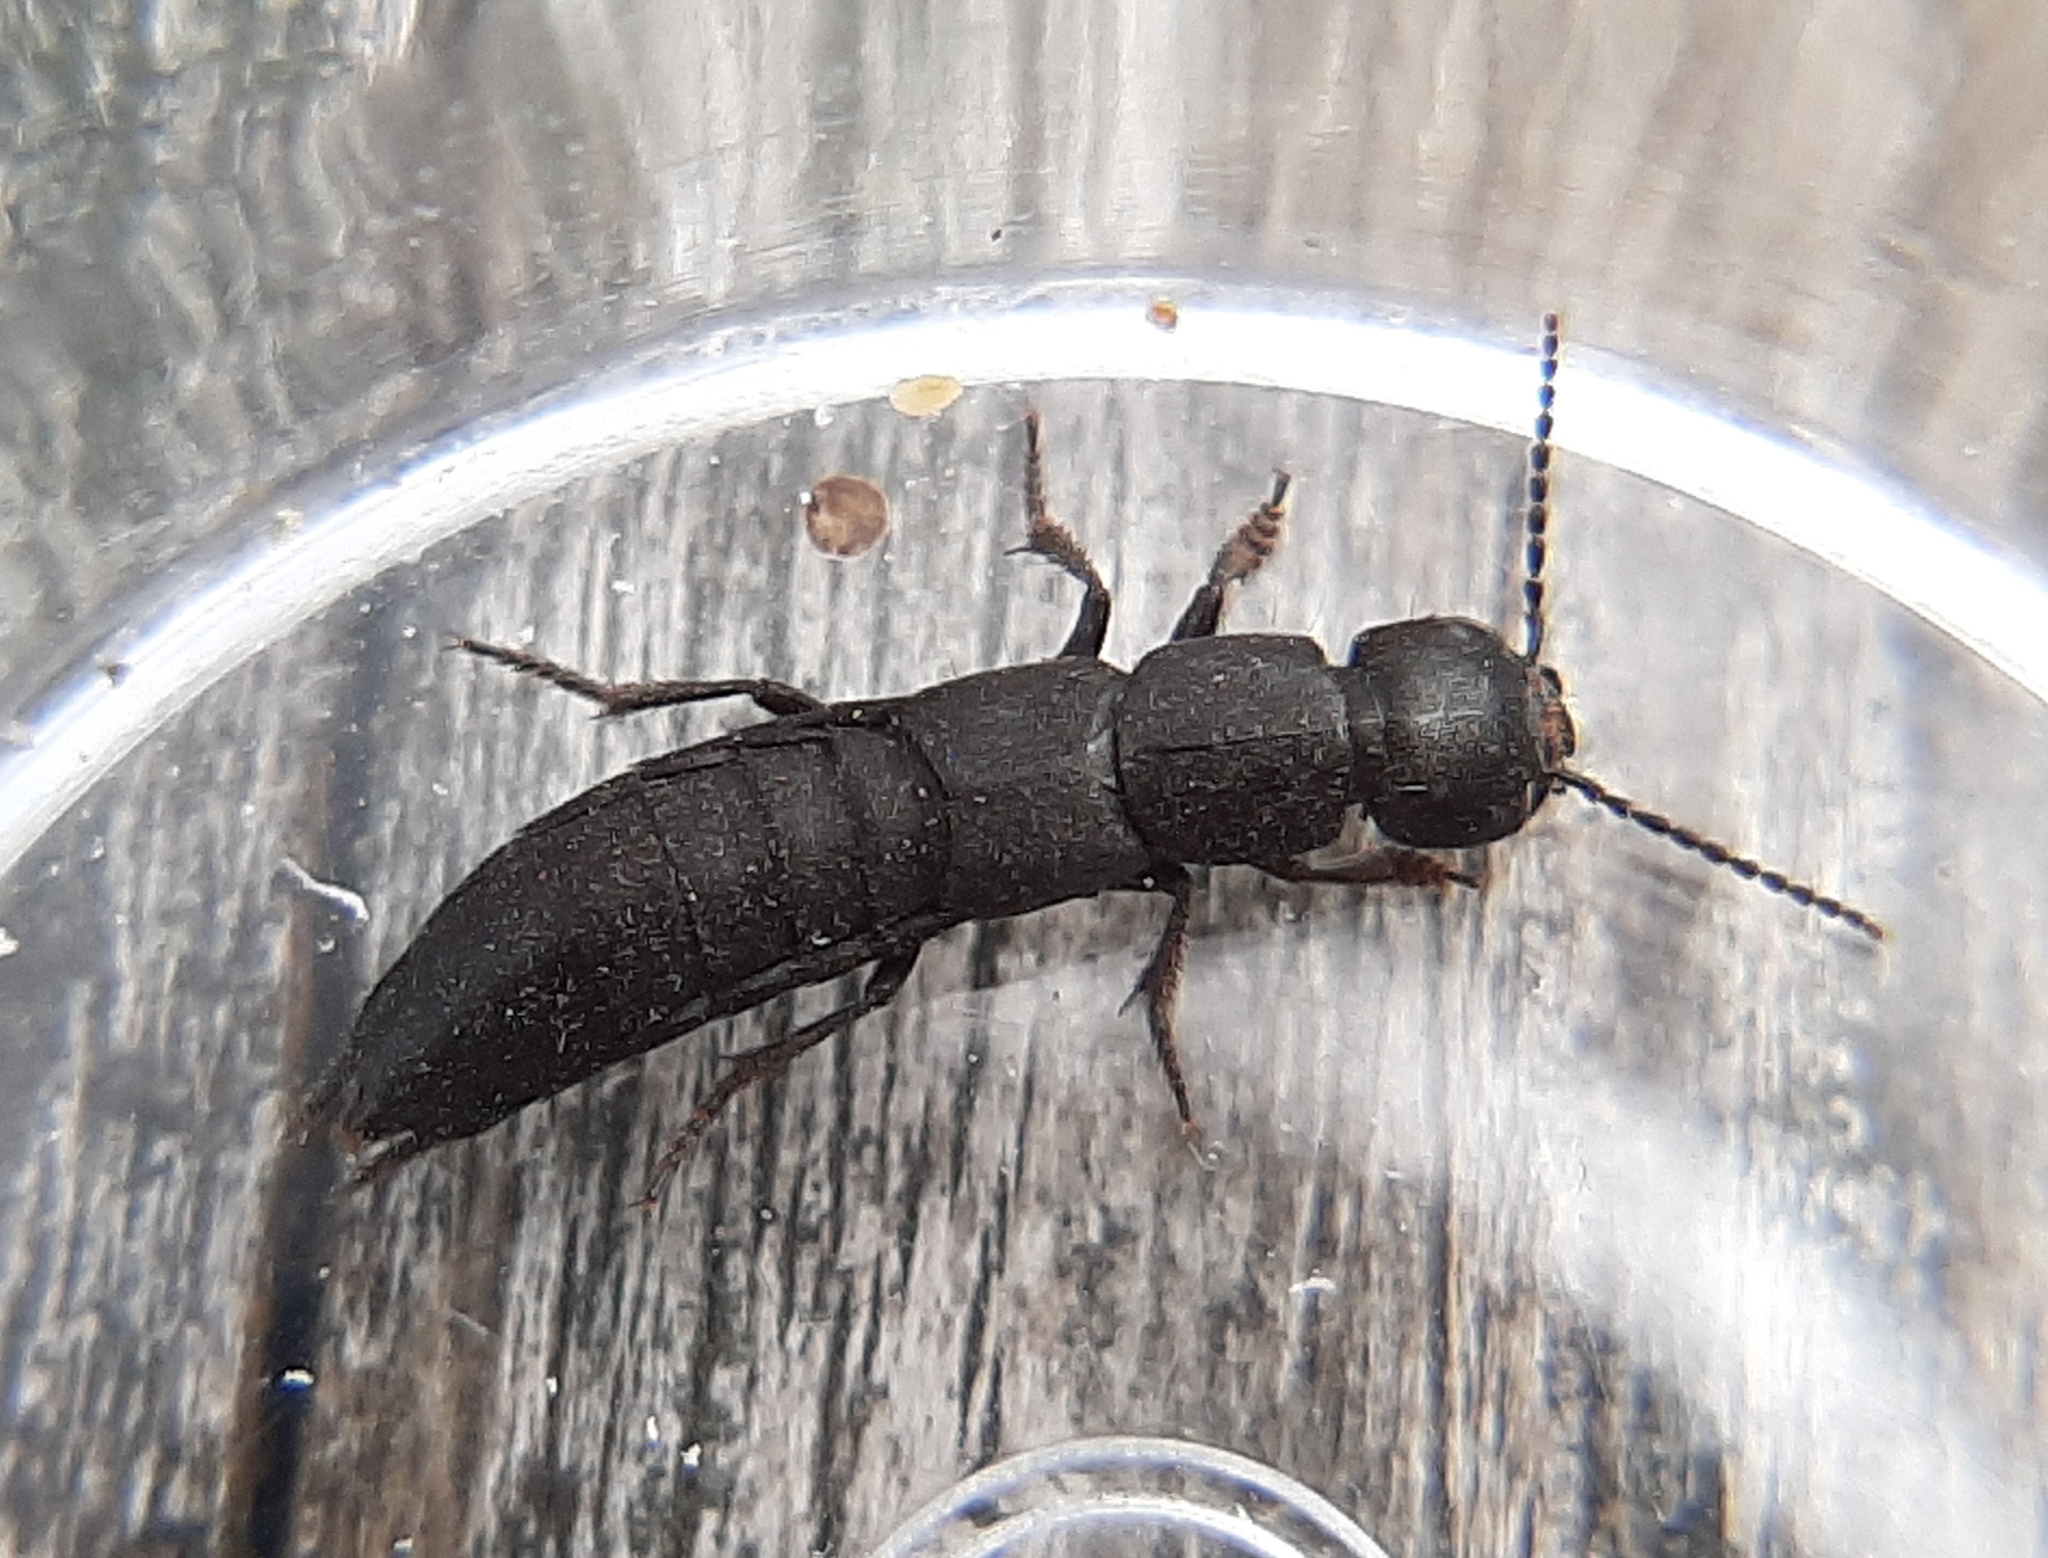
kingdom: Animalia
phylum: Arthropoda
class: Insecta
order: Coleoptera
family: Staphylinidae
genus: Ocypus
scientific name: Ocypus nitens
